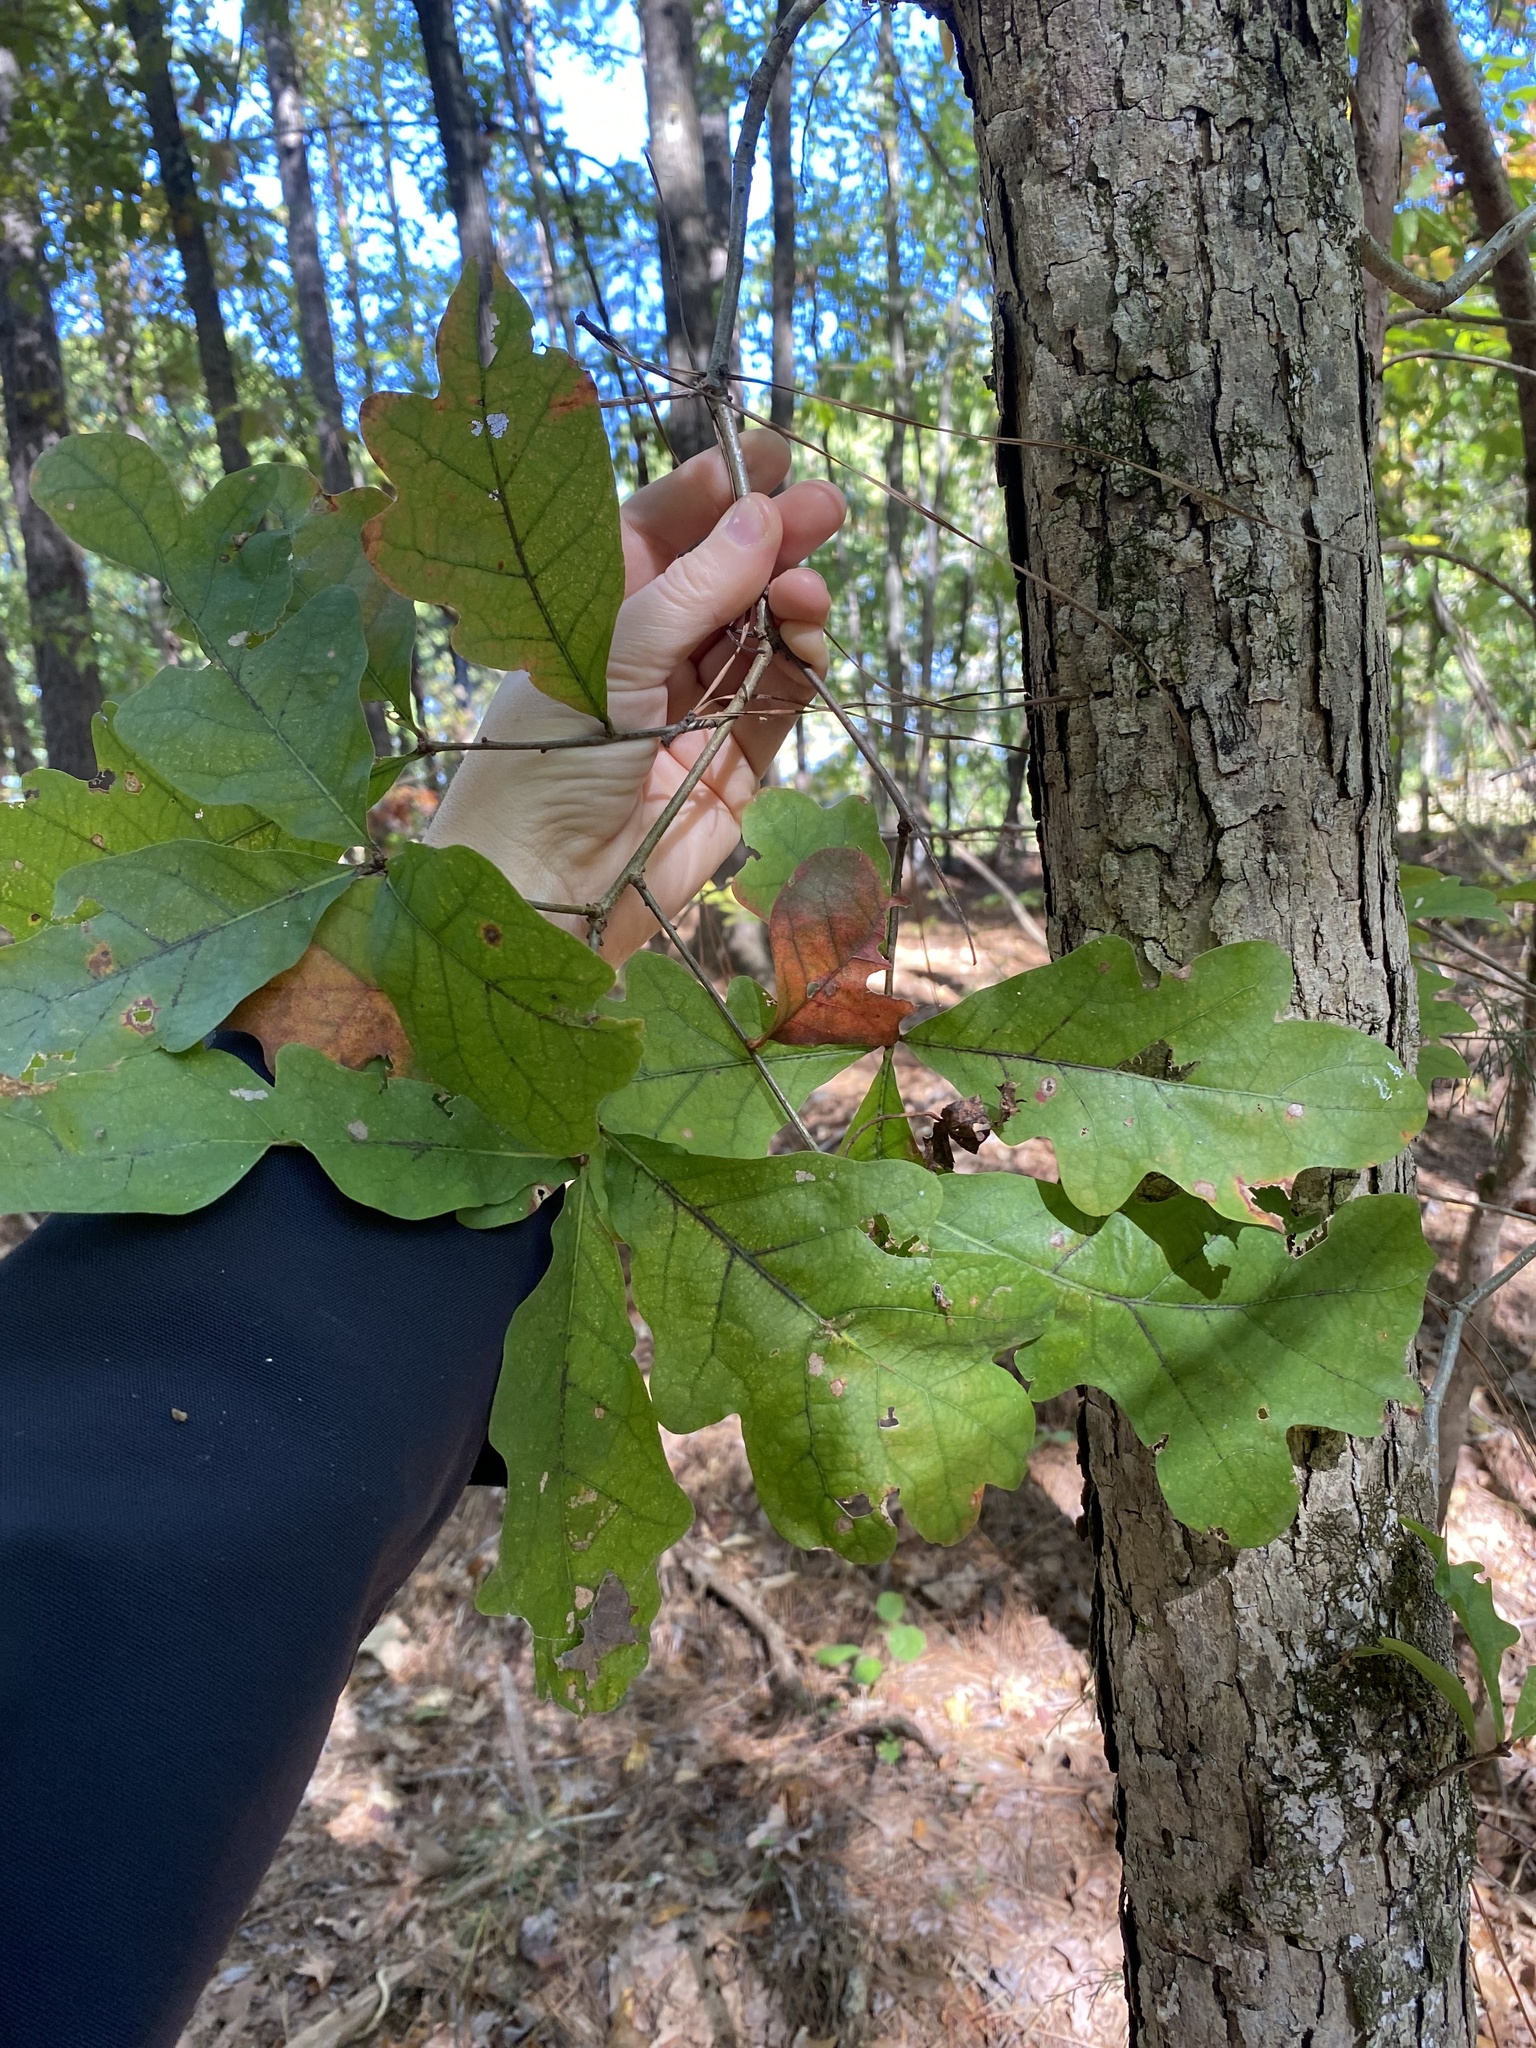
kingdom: Plantae
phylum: Tracheophyta
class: Magnoliopsida
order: Fagales
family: Fagaceae
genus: Quercus
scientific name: Quercus alba
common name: White oak
